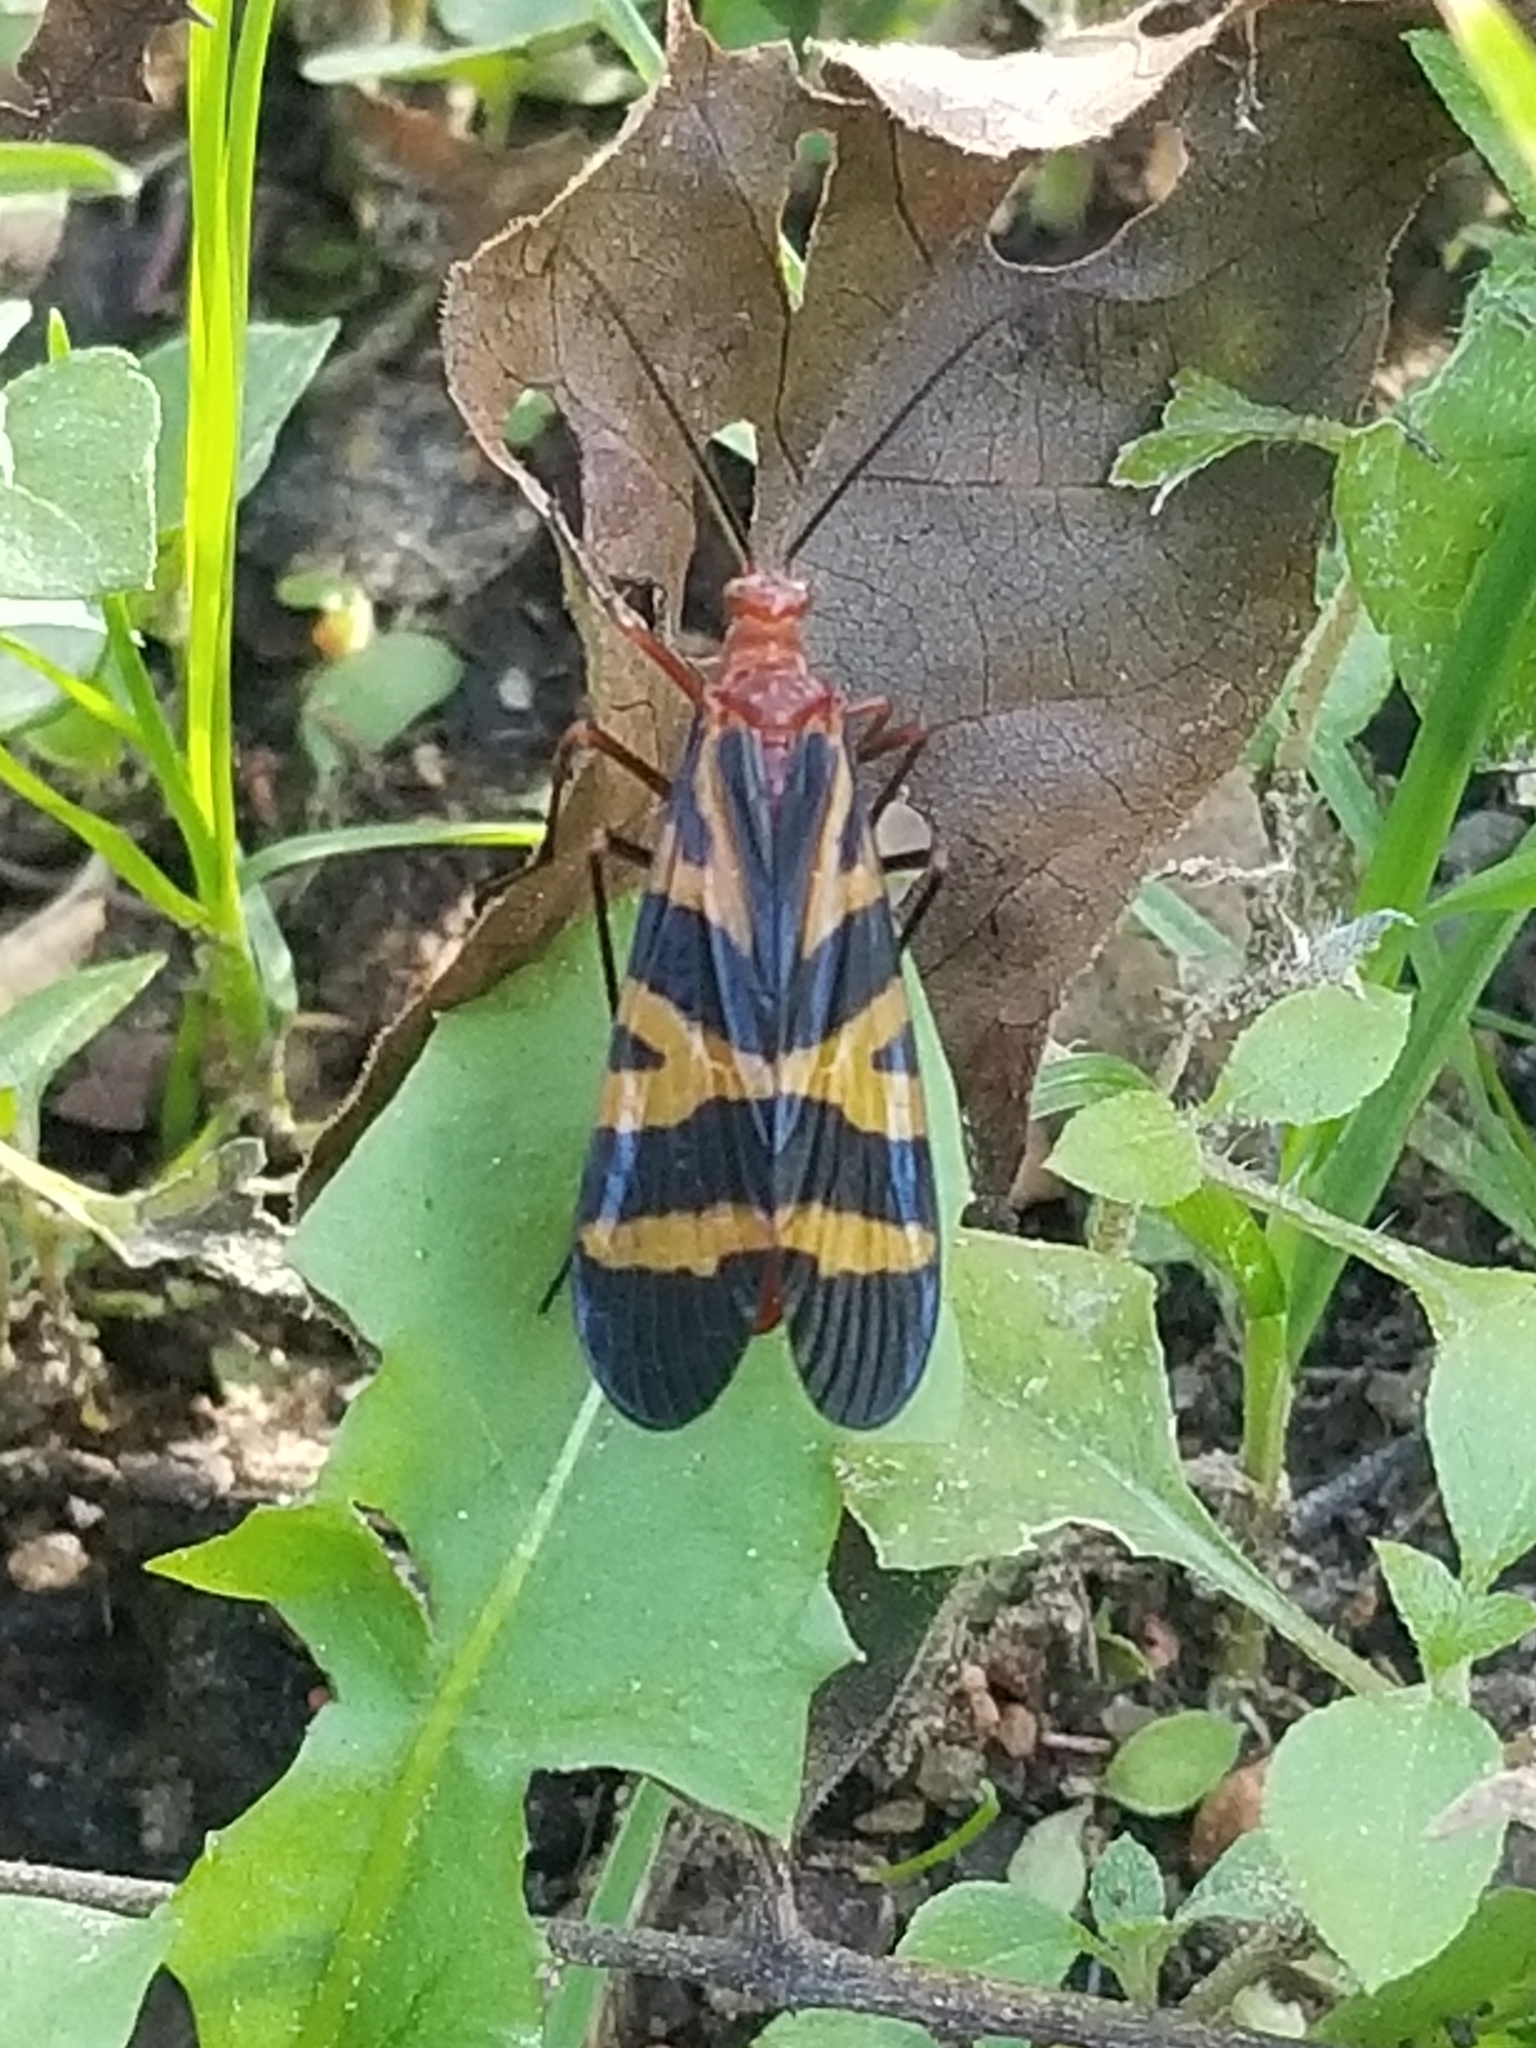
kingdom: Animalia
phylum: Arthropoda
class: Insecta
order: Mecoptera
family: Panorpidae
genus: Panorpa
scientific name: Panorpa nuptialis
